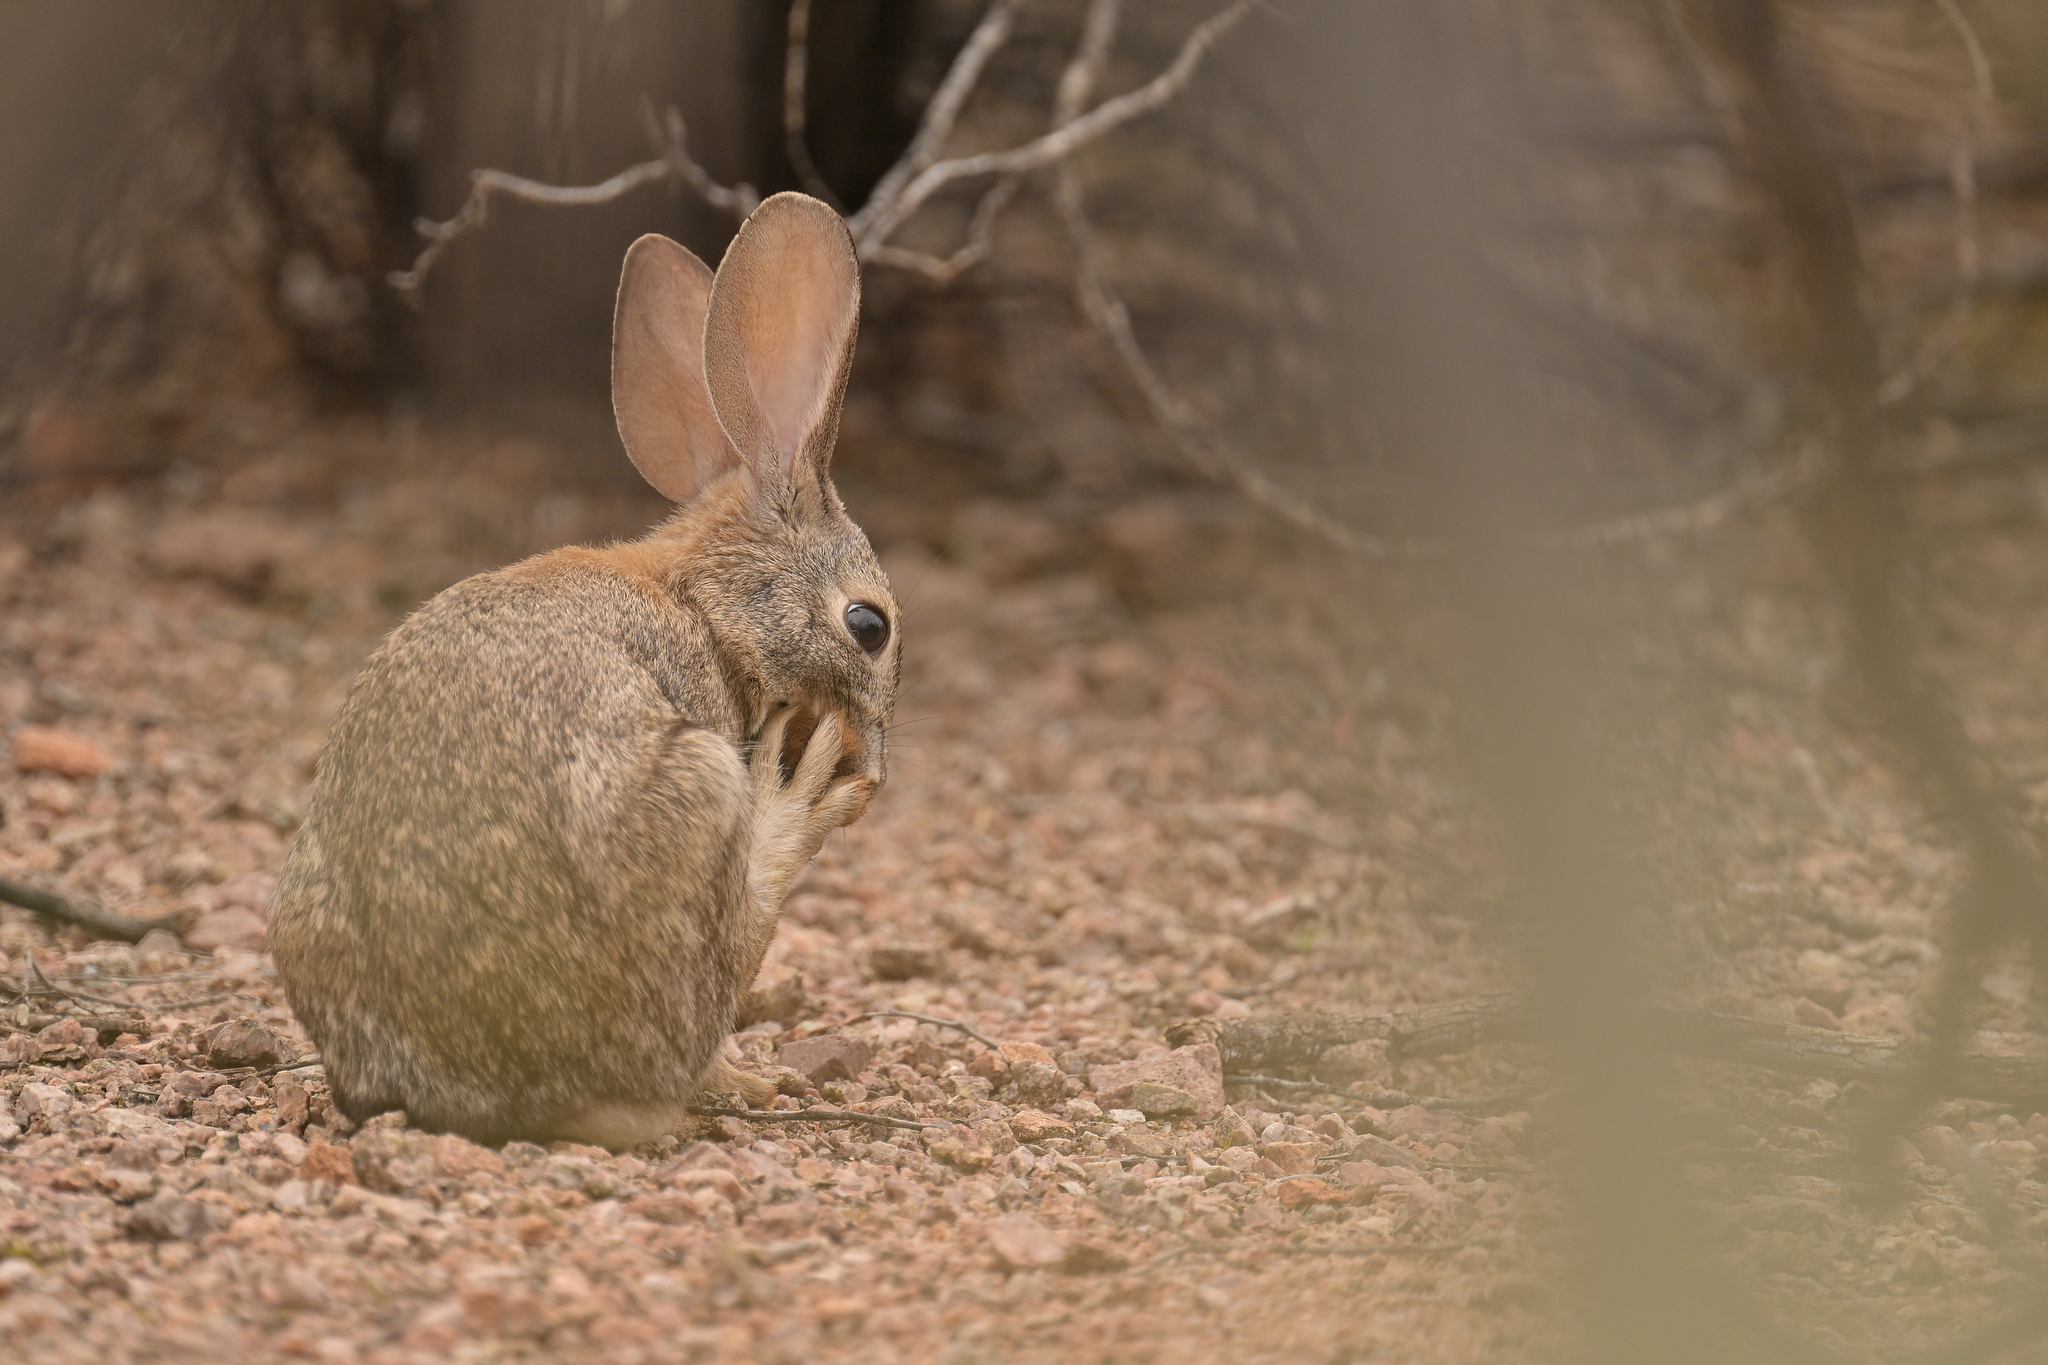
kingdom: Animalia
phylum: Chordata
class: Mammalia
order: Lagomorpha
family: Leporidae
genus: Sylvilagus
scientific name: Sylvilagus audubonii
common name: Desert cottontail
